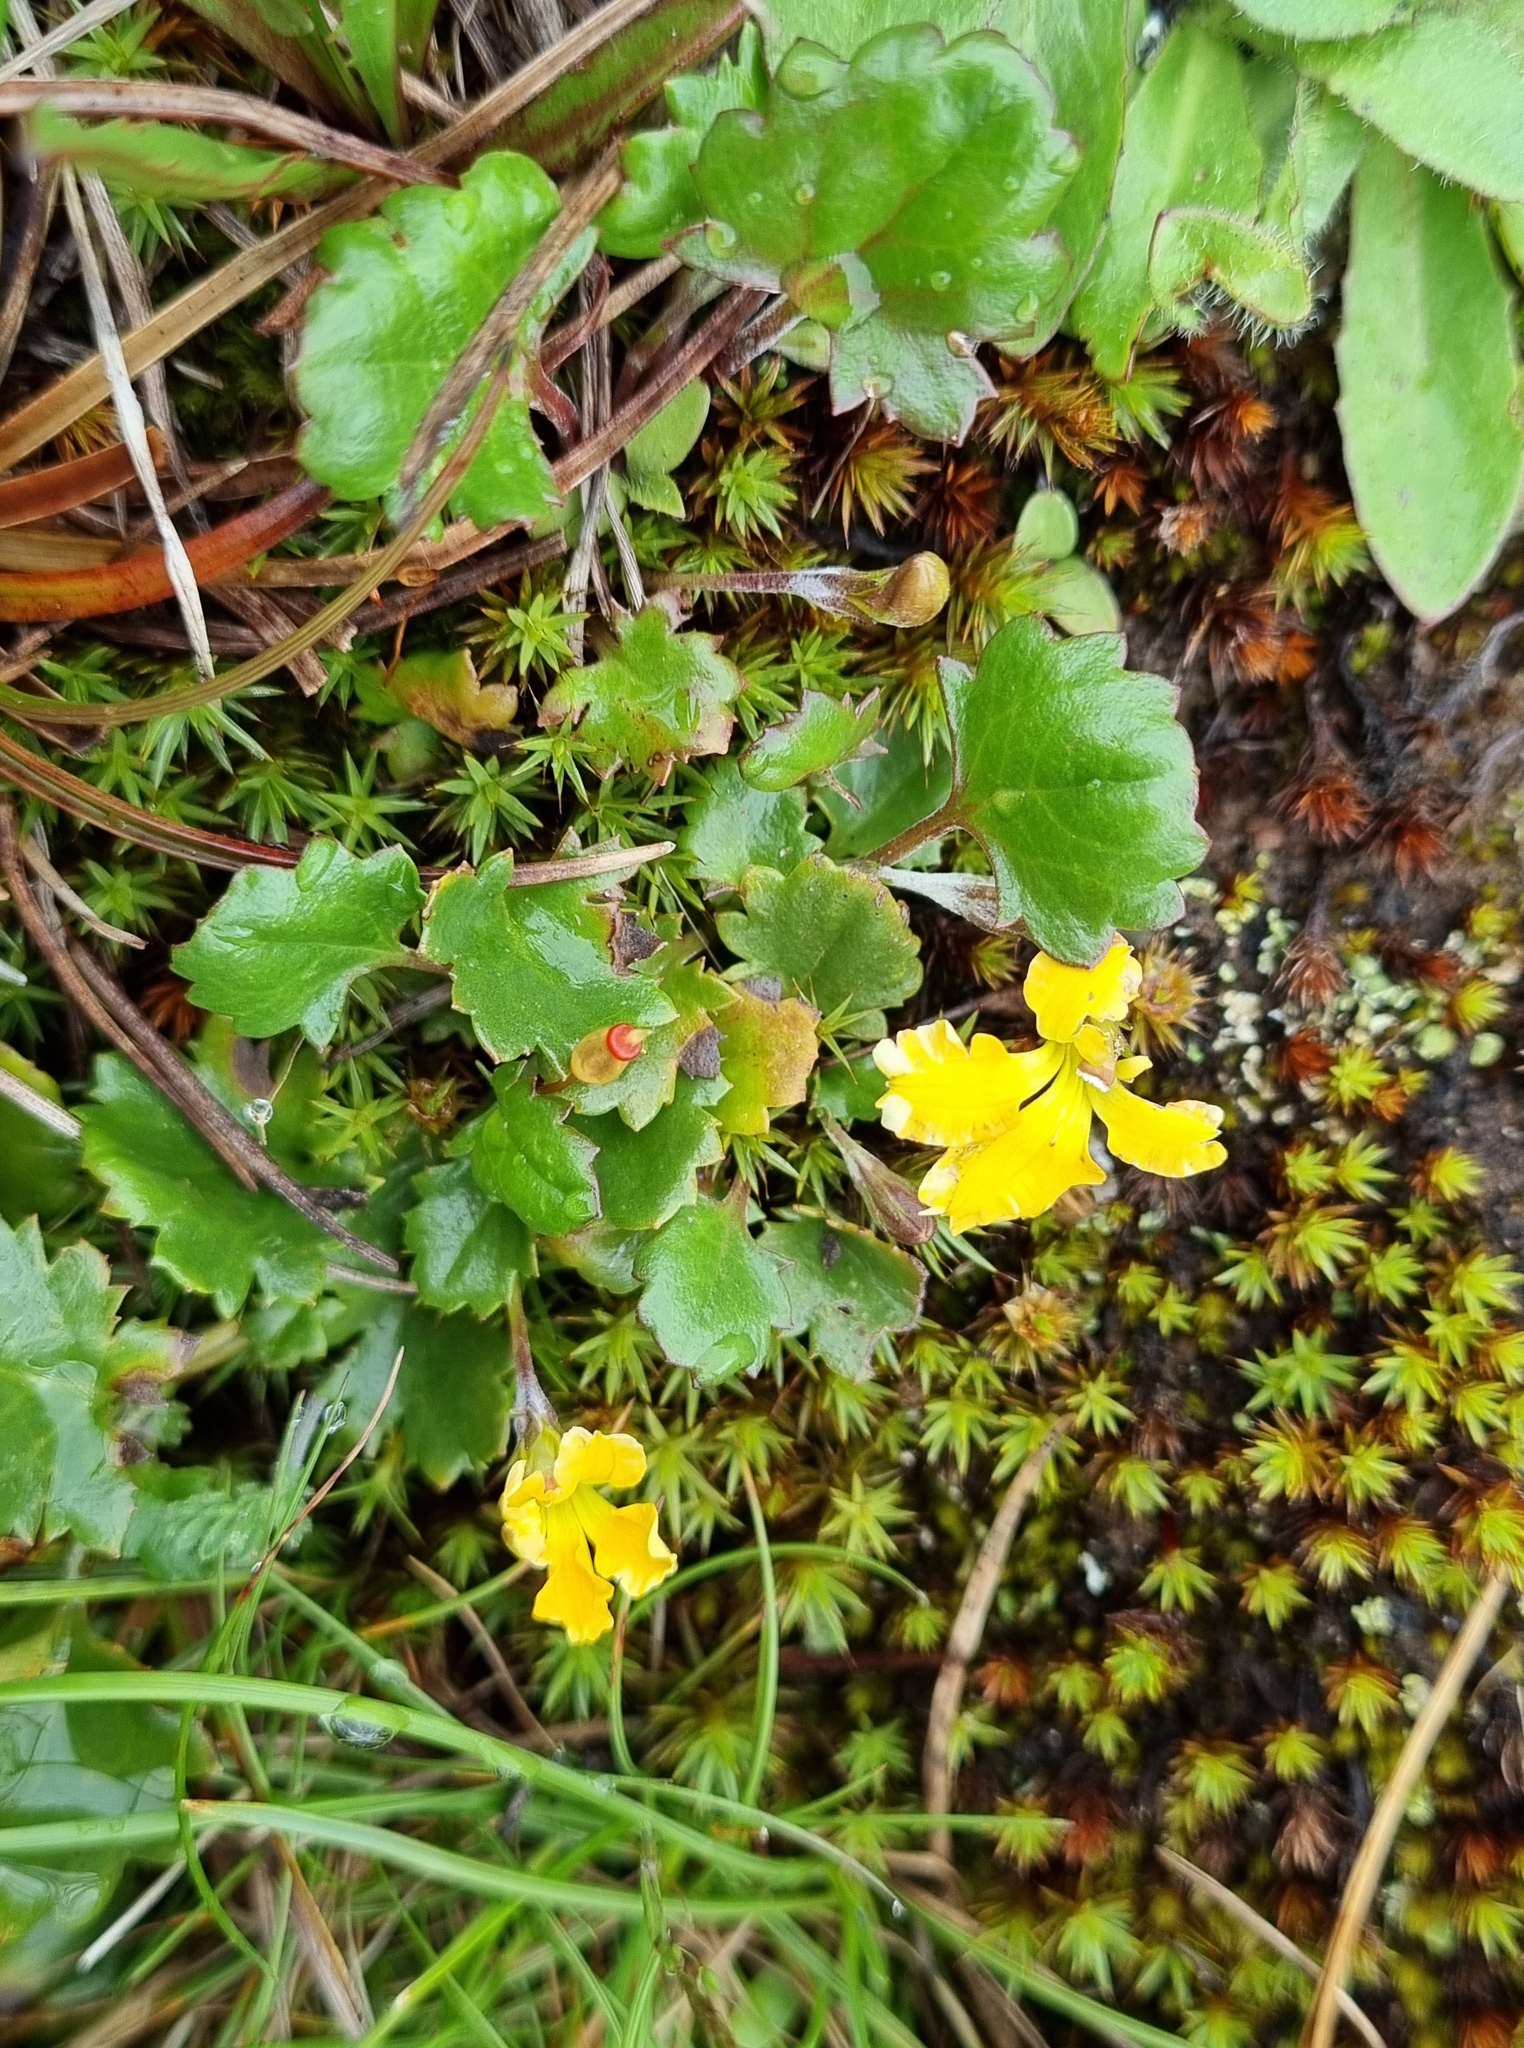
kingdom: Plantae
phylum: Tracheophyta
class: Magnoliopsida
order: Asterales
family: Goodeniaceae
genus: Goodenia
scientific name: Goodenia hederacea
